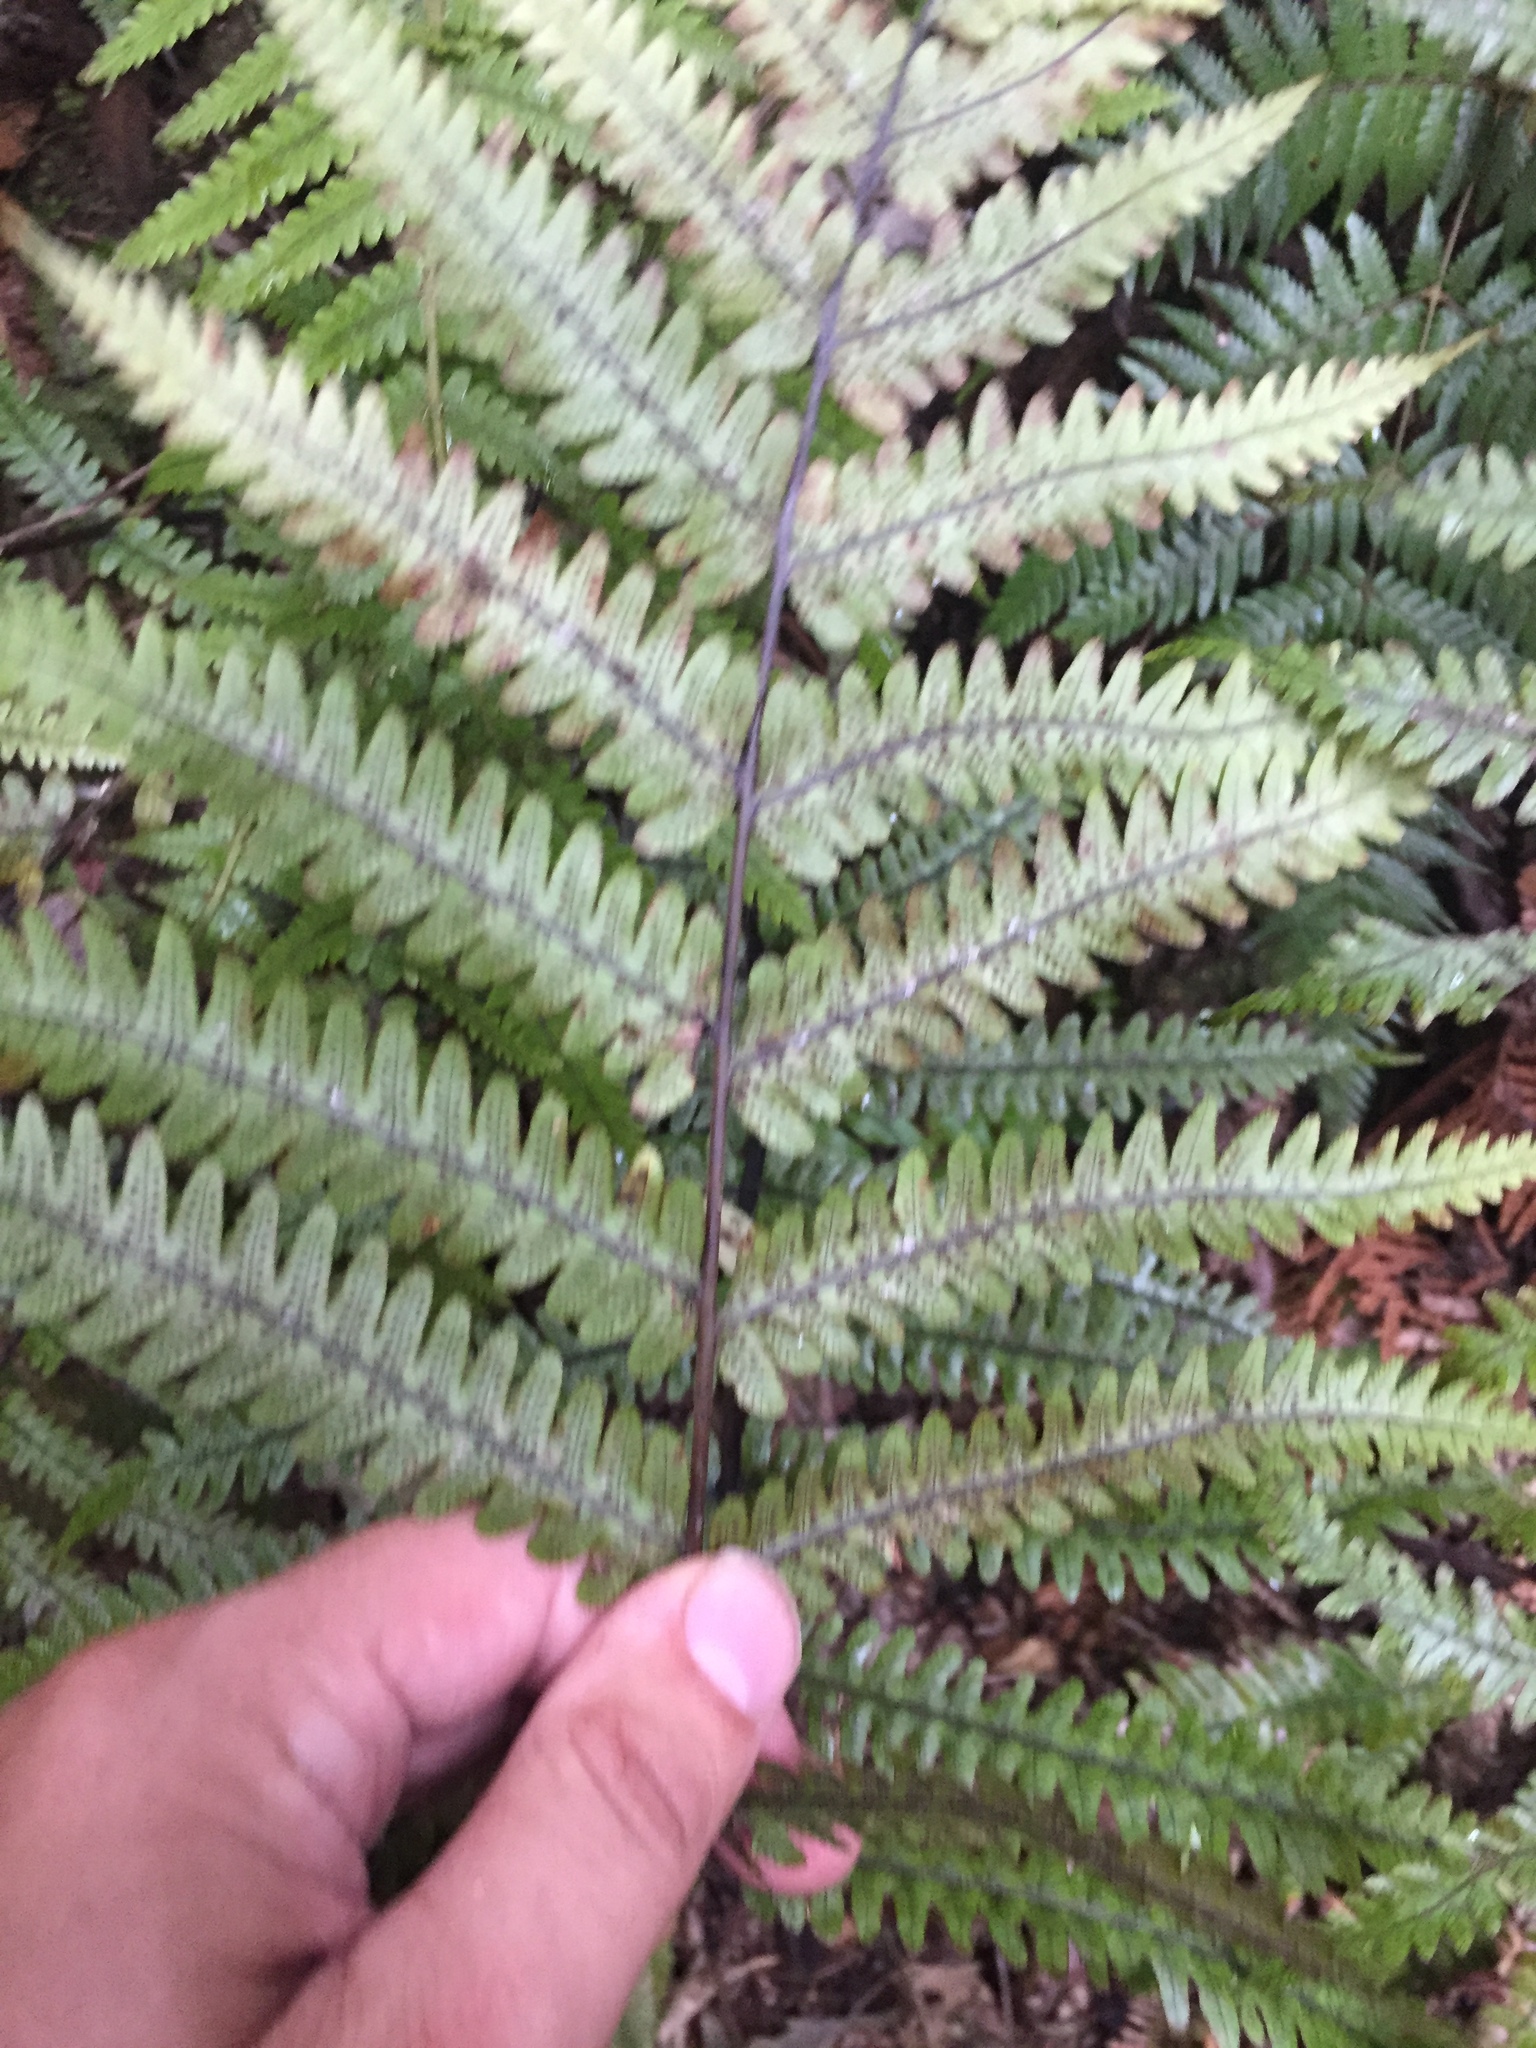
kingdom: Plantae
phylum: Tracheophyta
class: Polypodiopsida
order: Polypodiales
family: Thelypteridaceae
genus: Pakau
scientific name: Pakau pennigera
